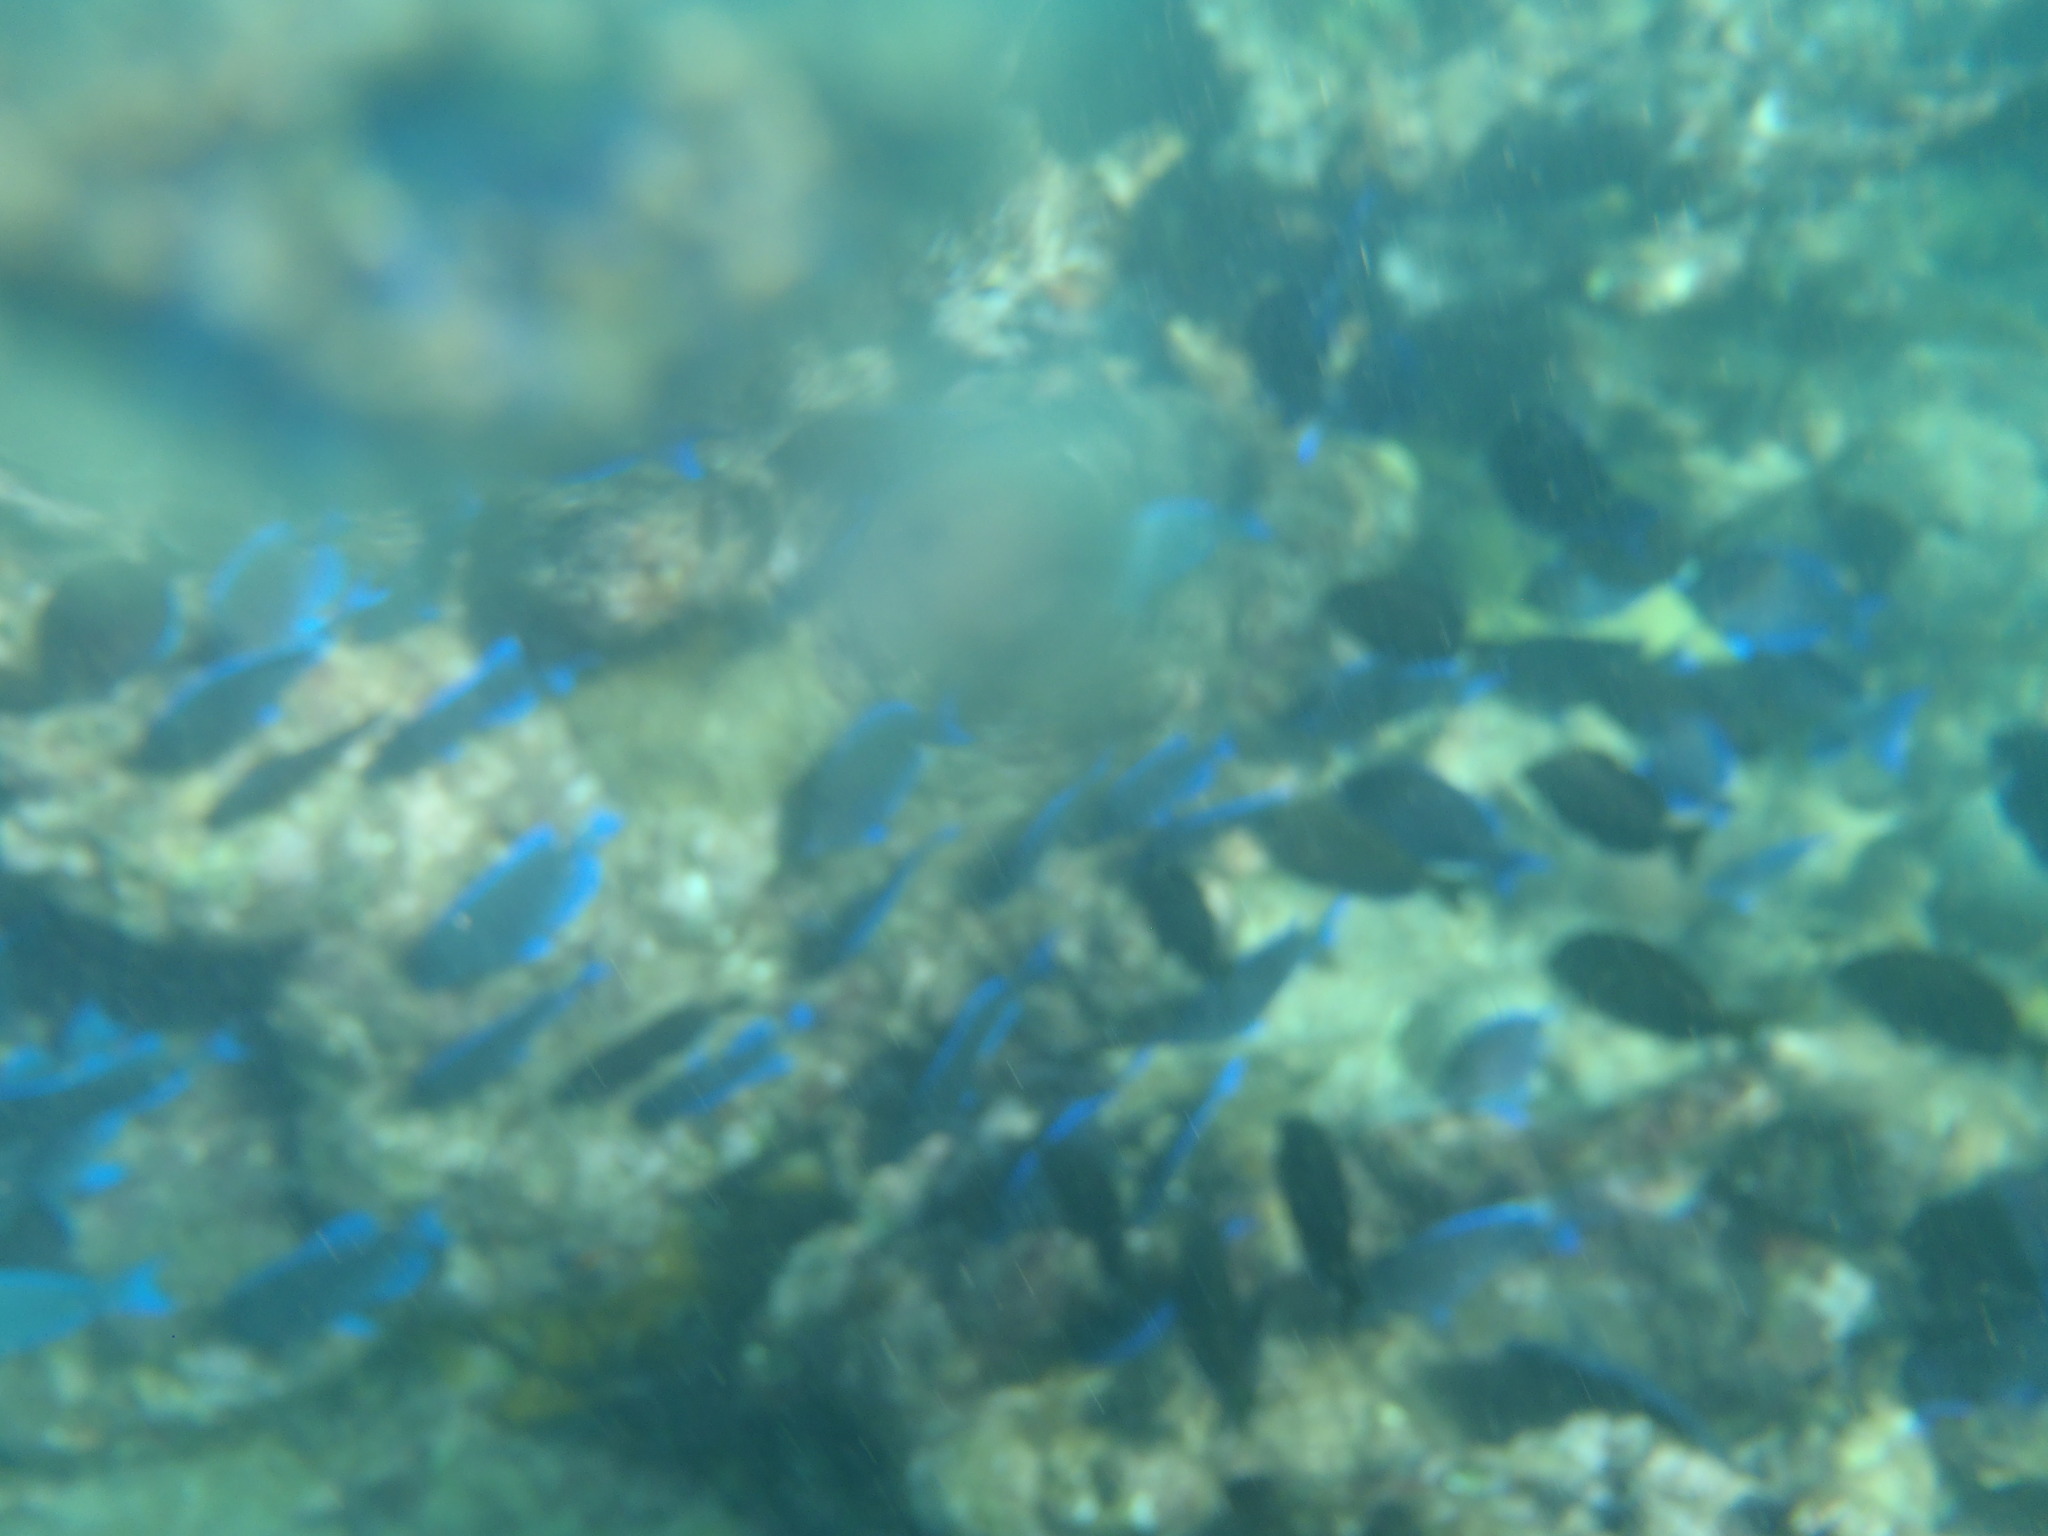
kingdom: Animalia
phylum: Chordata
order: Perciformes
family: Acanthuridae
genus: Acanthurus
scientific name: Acanthurus coeruleus
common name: Blue tang
